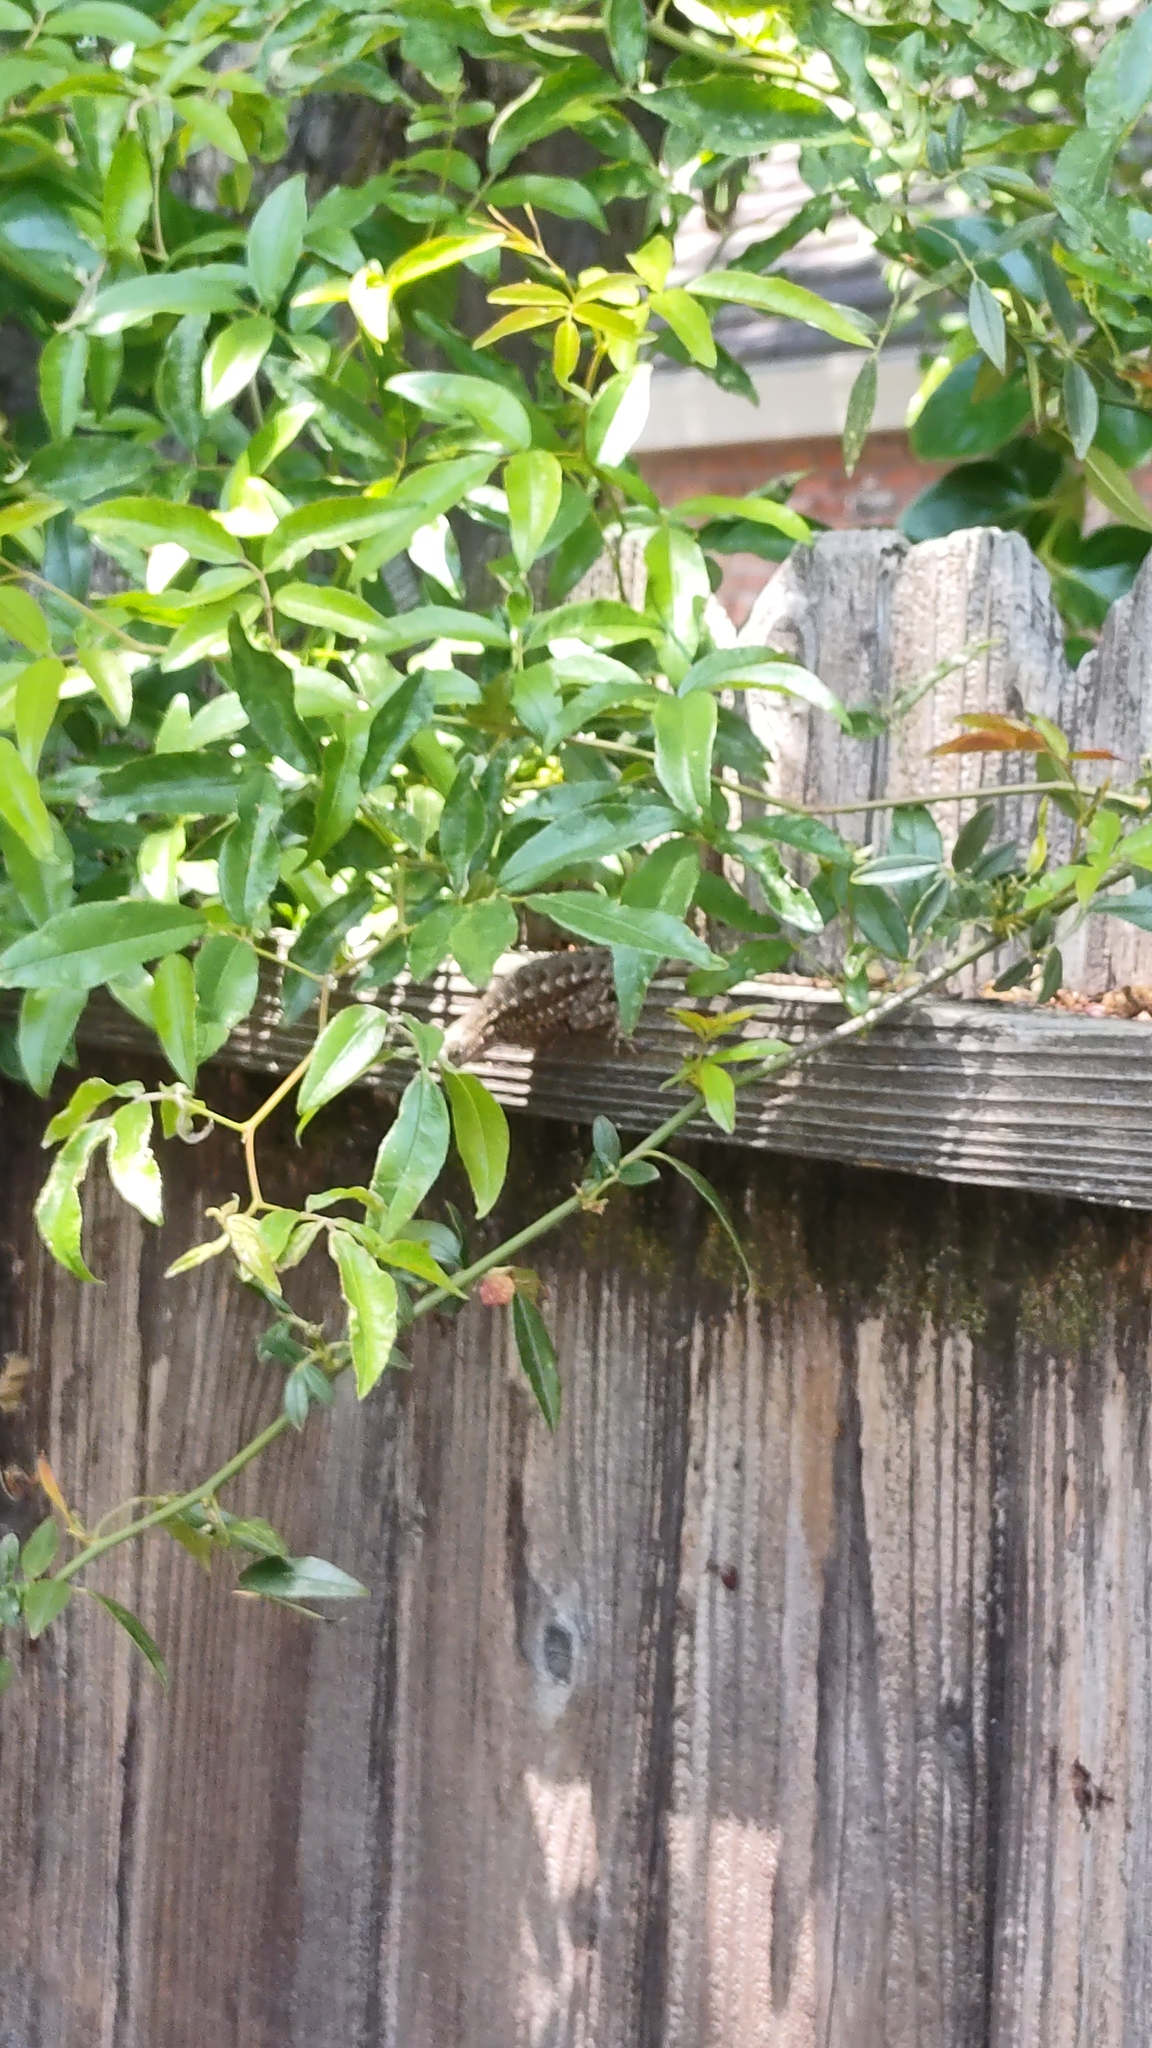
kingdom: Animalia
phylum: Chordata
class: Squamata
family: Phrynosomatidae
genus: Sceloporus
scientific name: Sceloporus occidentalis
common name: Western fence lizard
